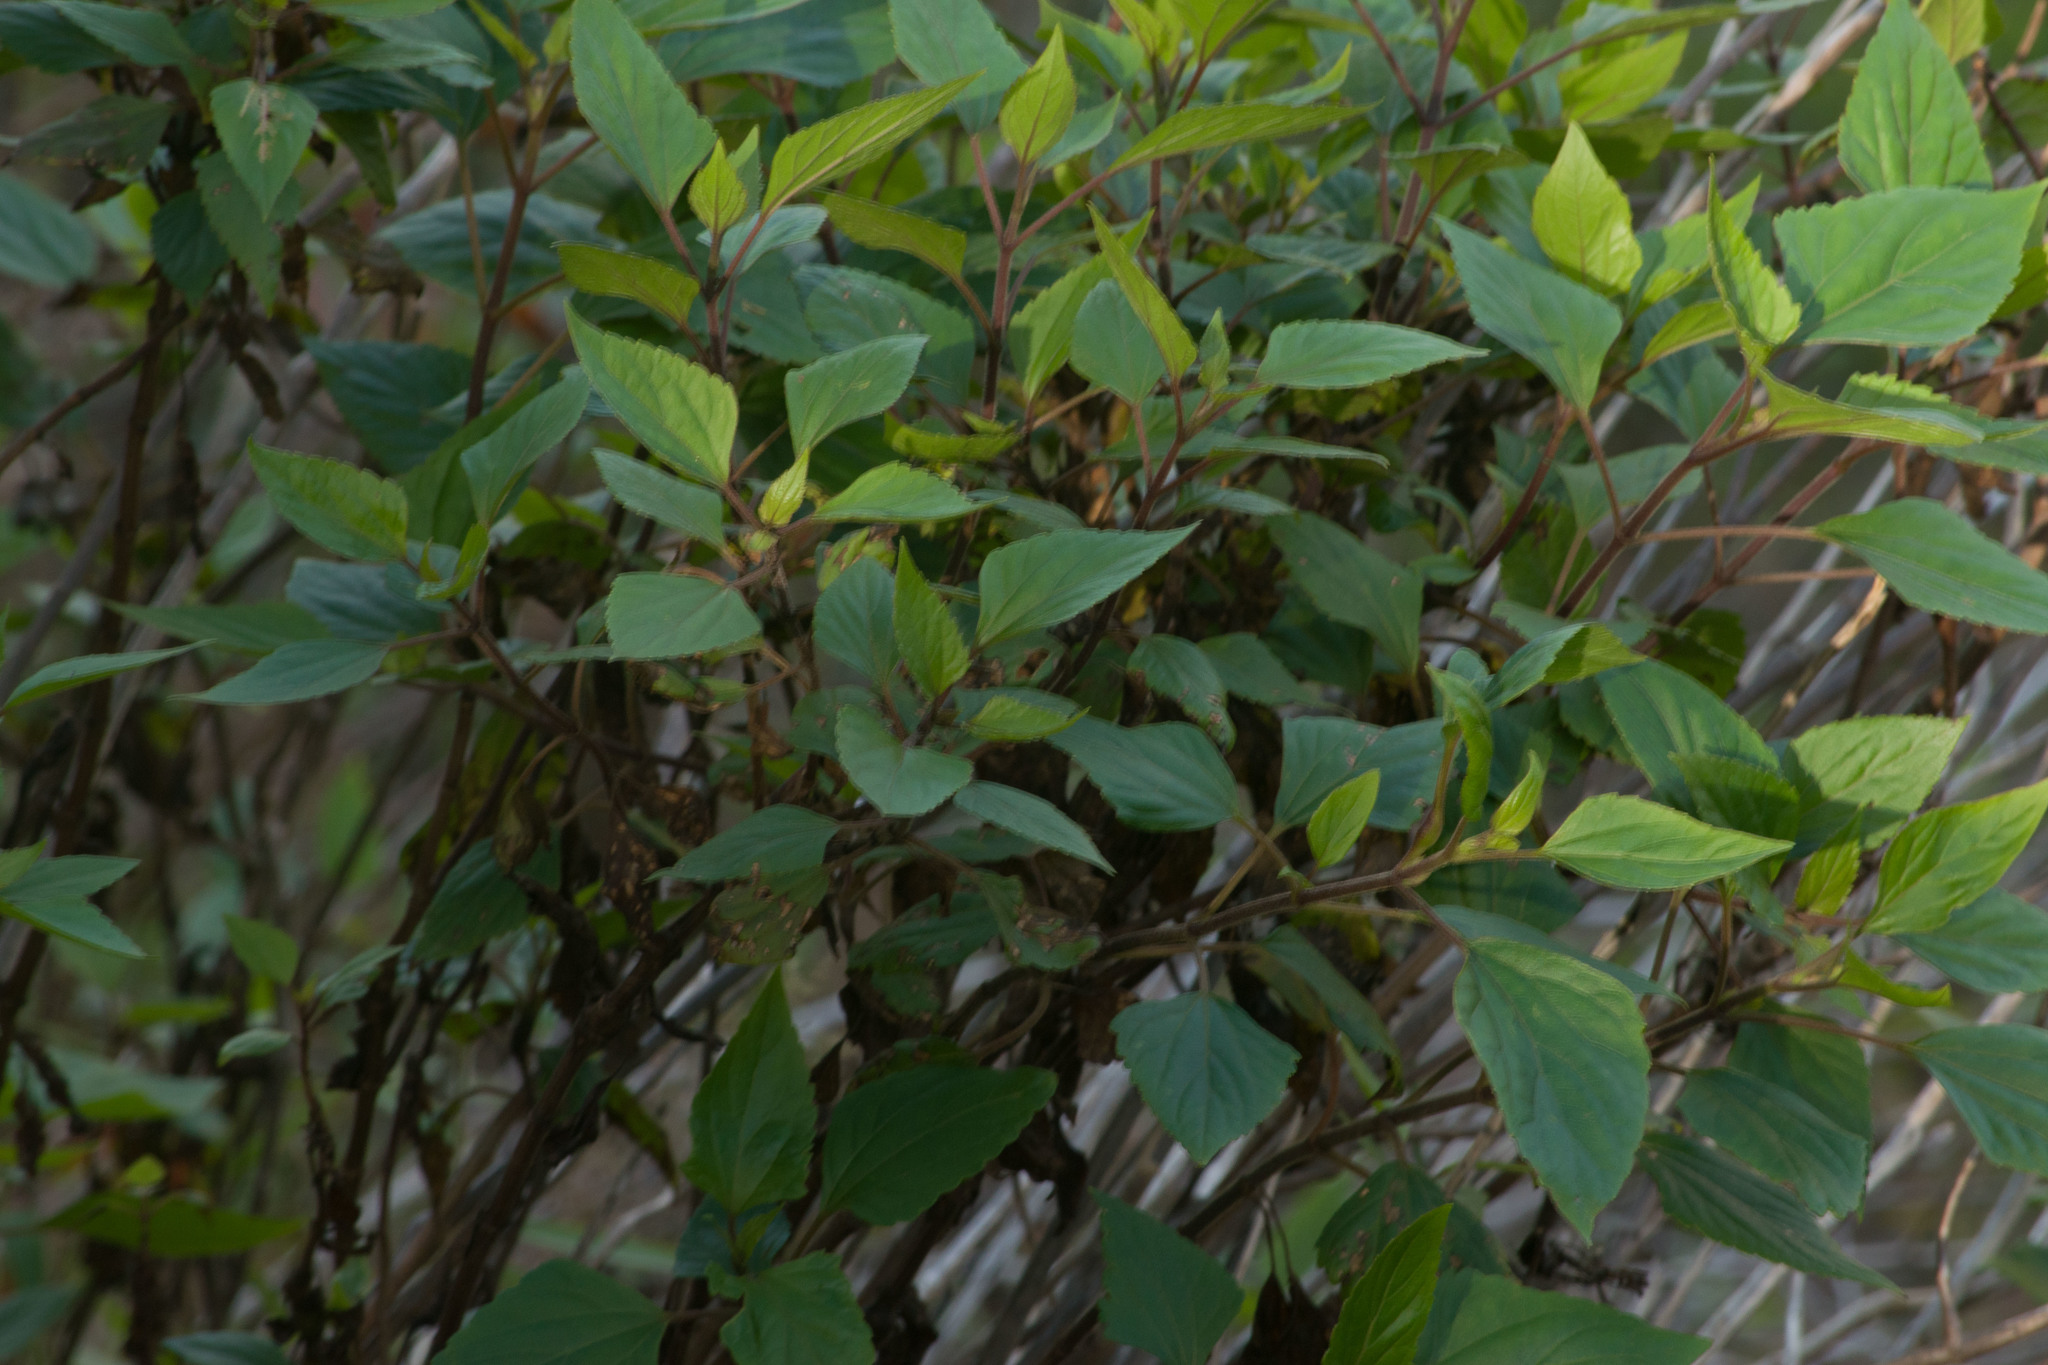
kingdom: Plantae
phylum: Tracheophyta
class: Magnoliopsida
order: Asterales
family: Asteraceae
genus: Ageratina
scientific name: Ageratina adenophora
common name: Sticky snakeroot
